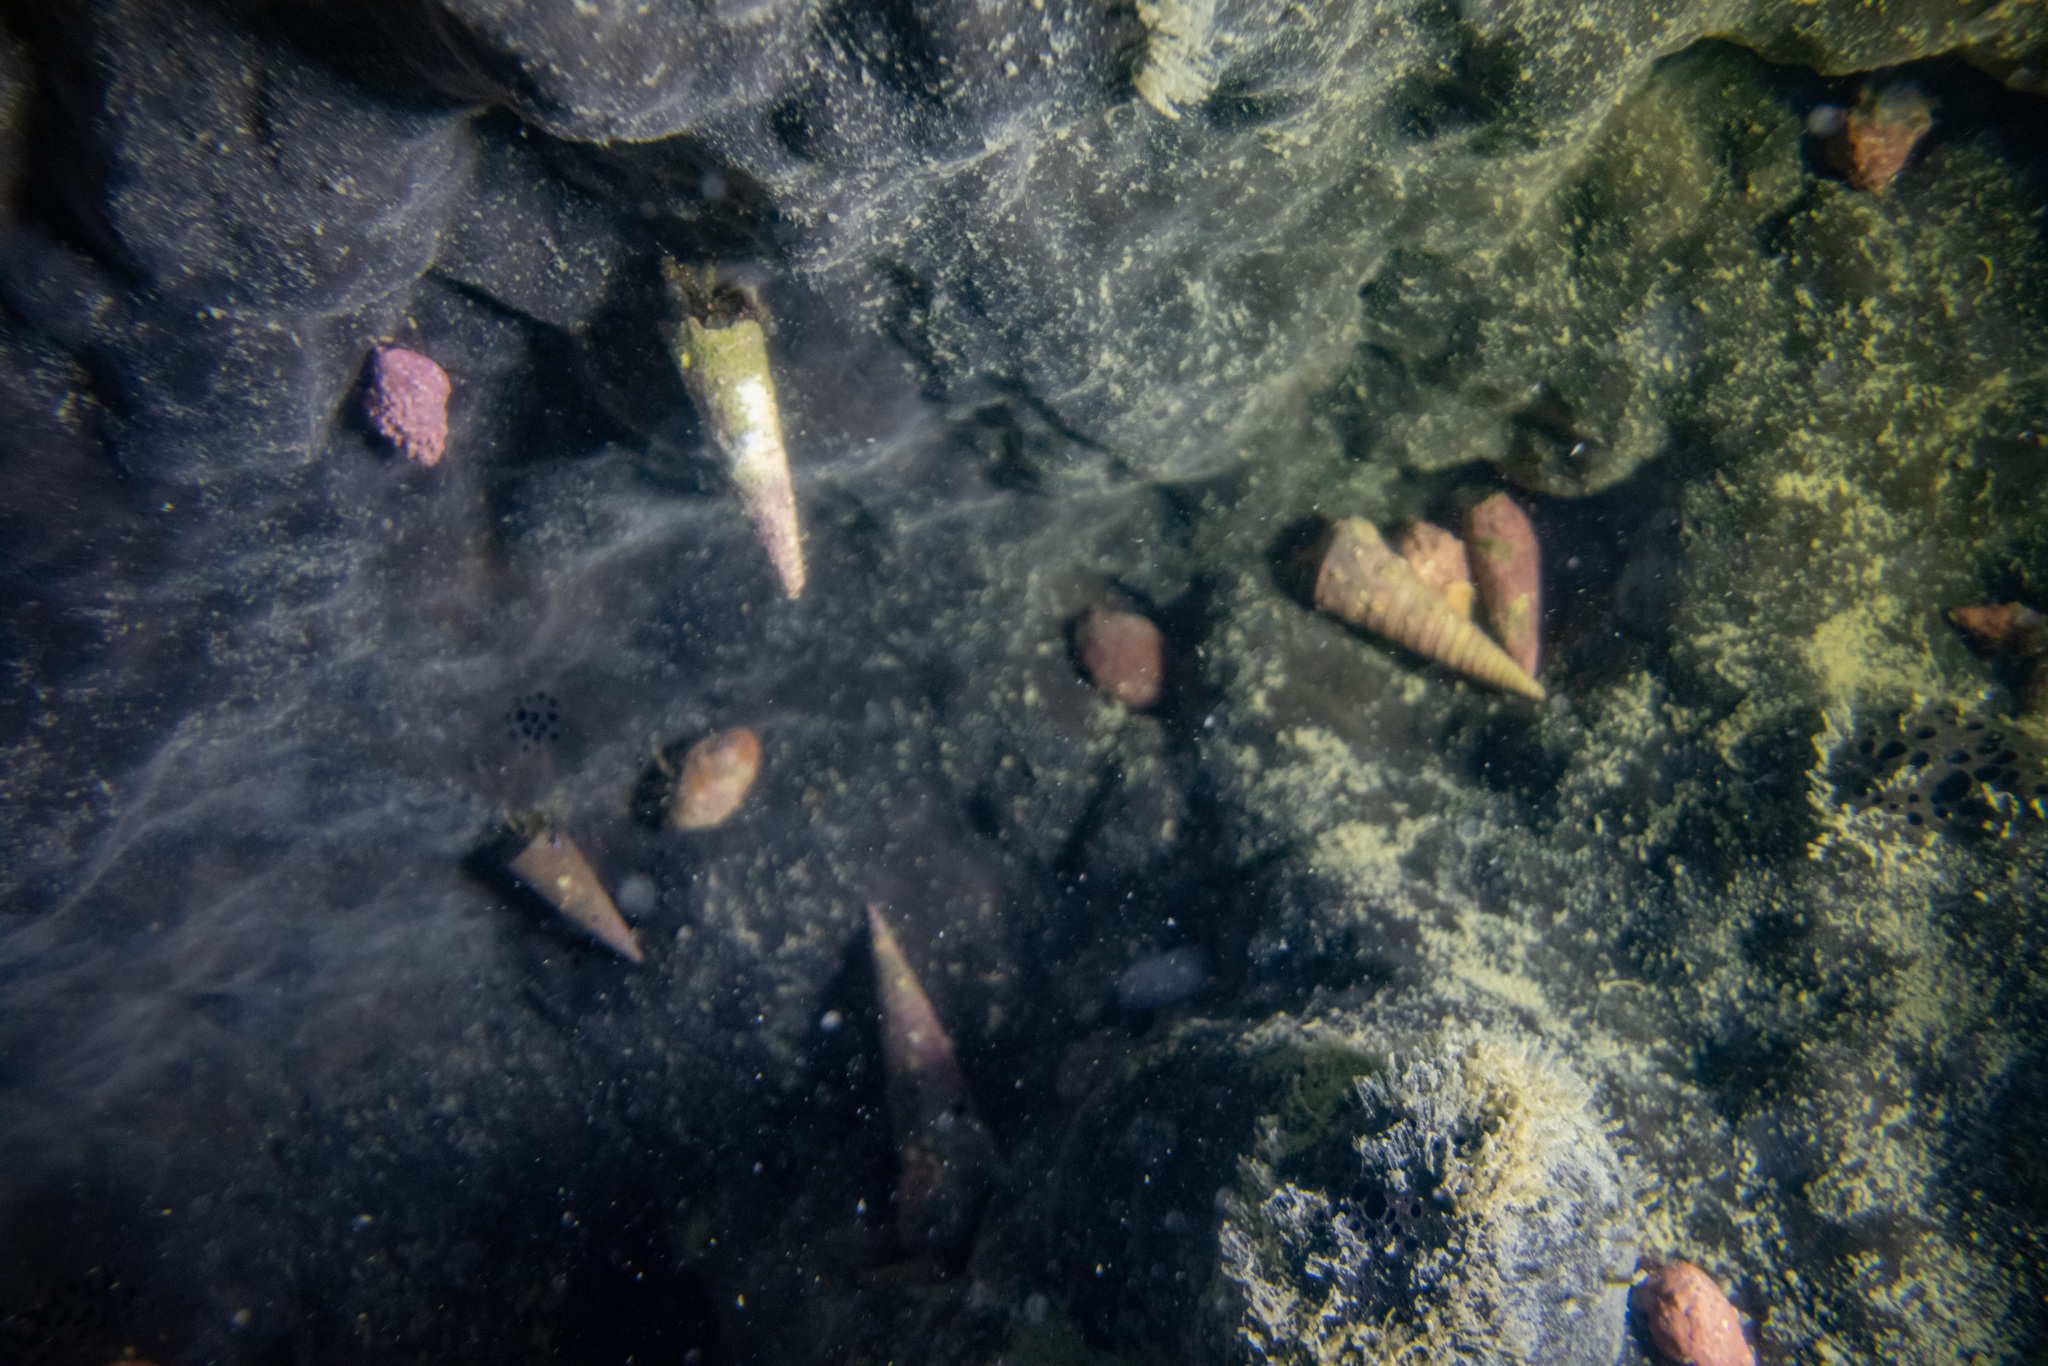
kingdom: Animalia
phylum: Porifera
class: Demospongiae
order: Tetractinellida
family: Ancorinidae
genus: Ecionemia
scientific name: Ecionemia alata
